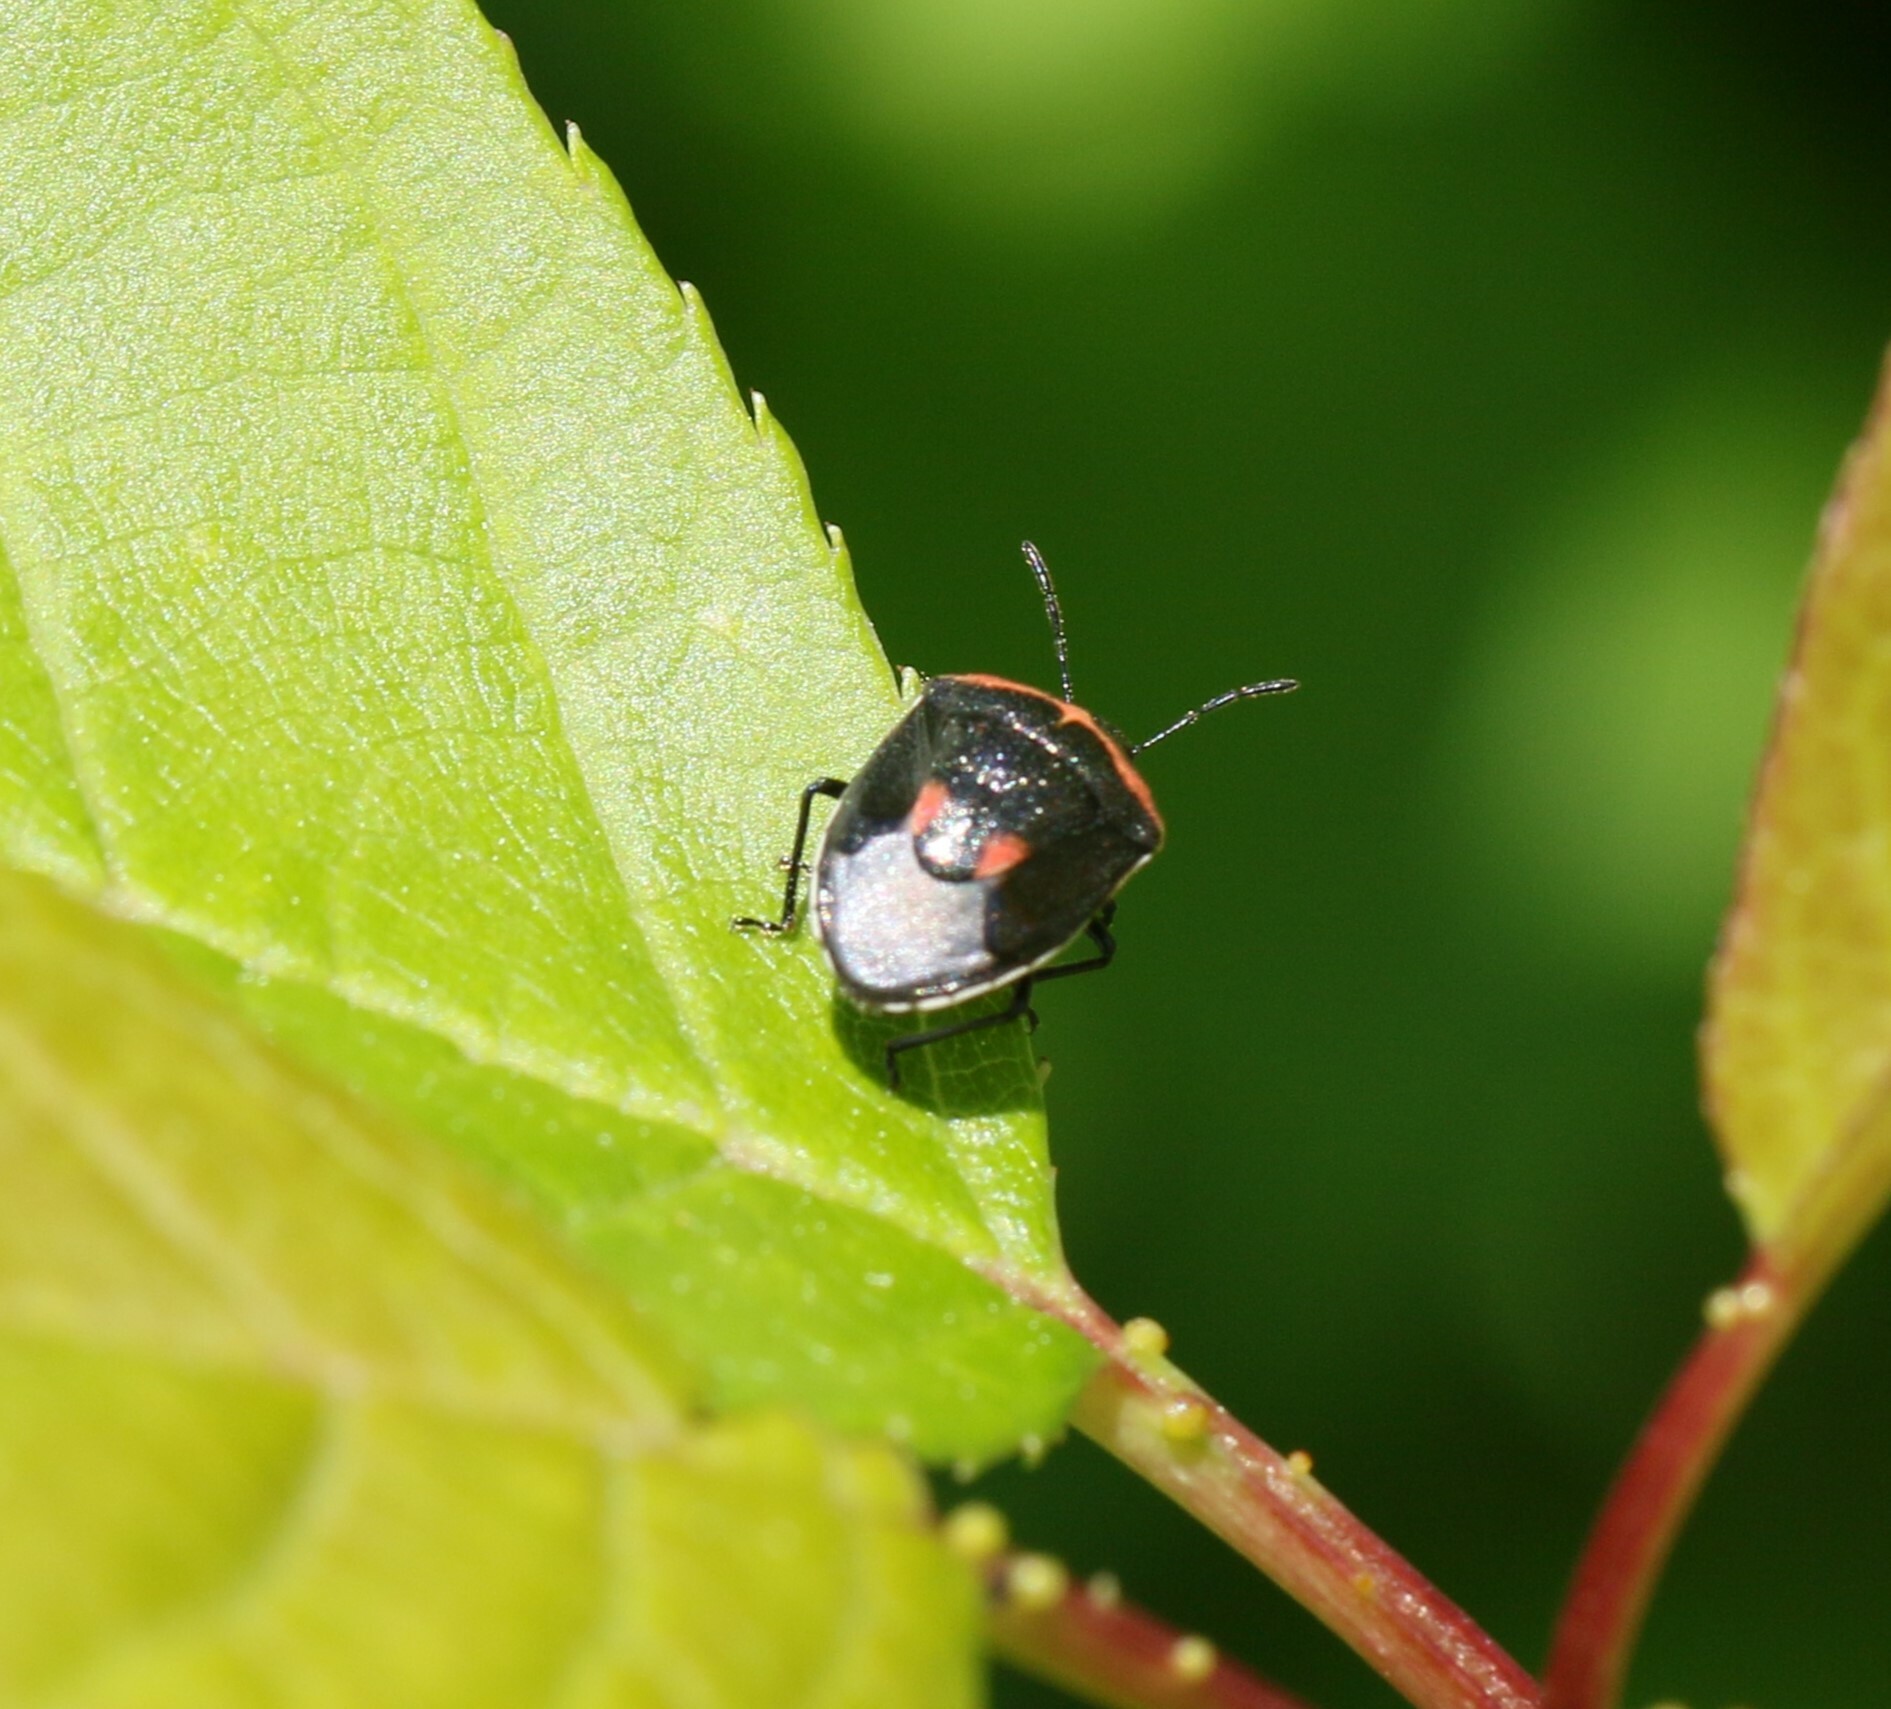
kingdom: Animalia
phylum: Arthropoda
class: Insecta
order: Hemiptera
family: Pentatomidae
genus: Cosmopepla
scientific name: Cosmopepla lintneriana
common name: Twice-stabbed stink bug
